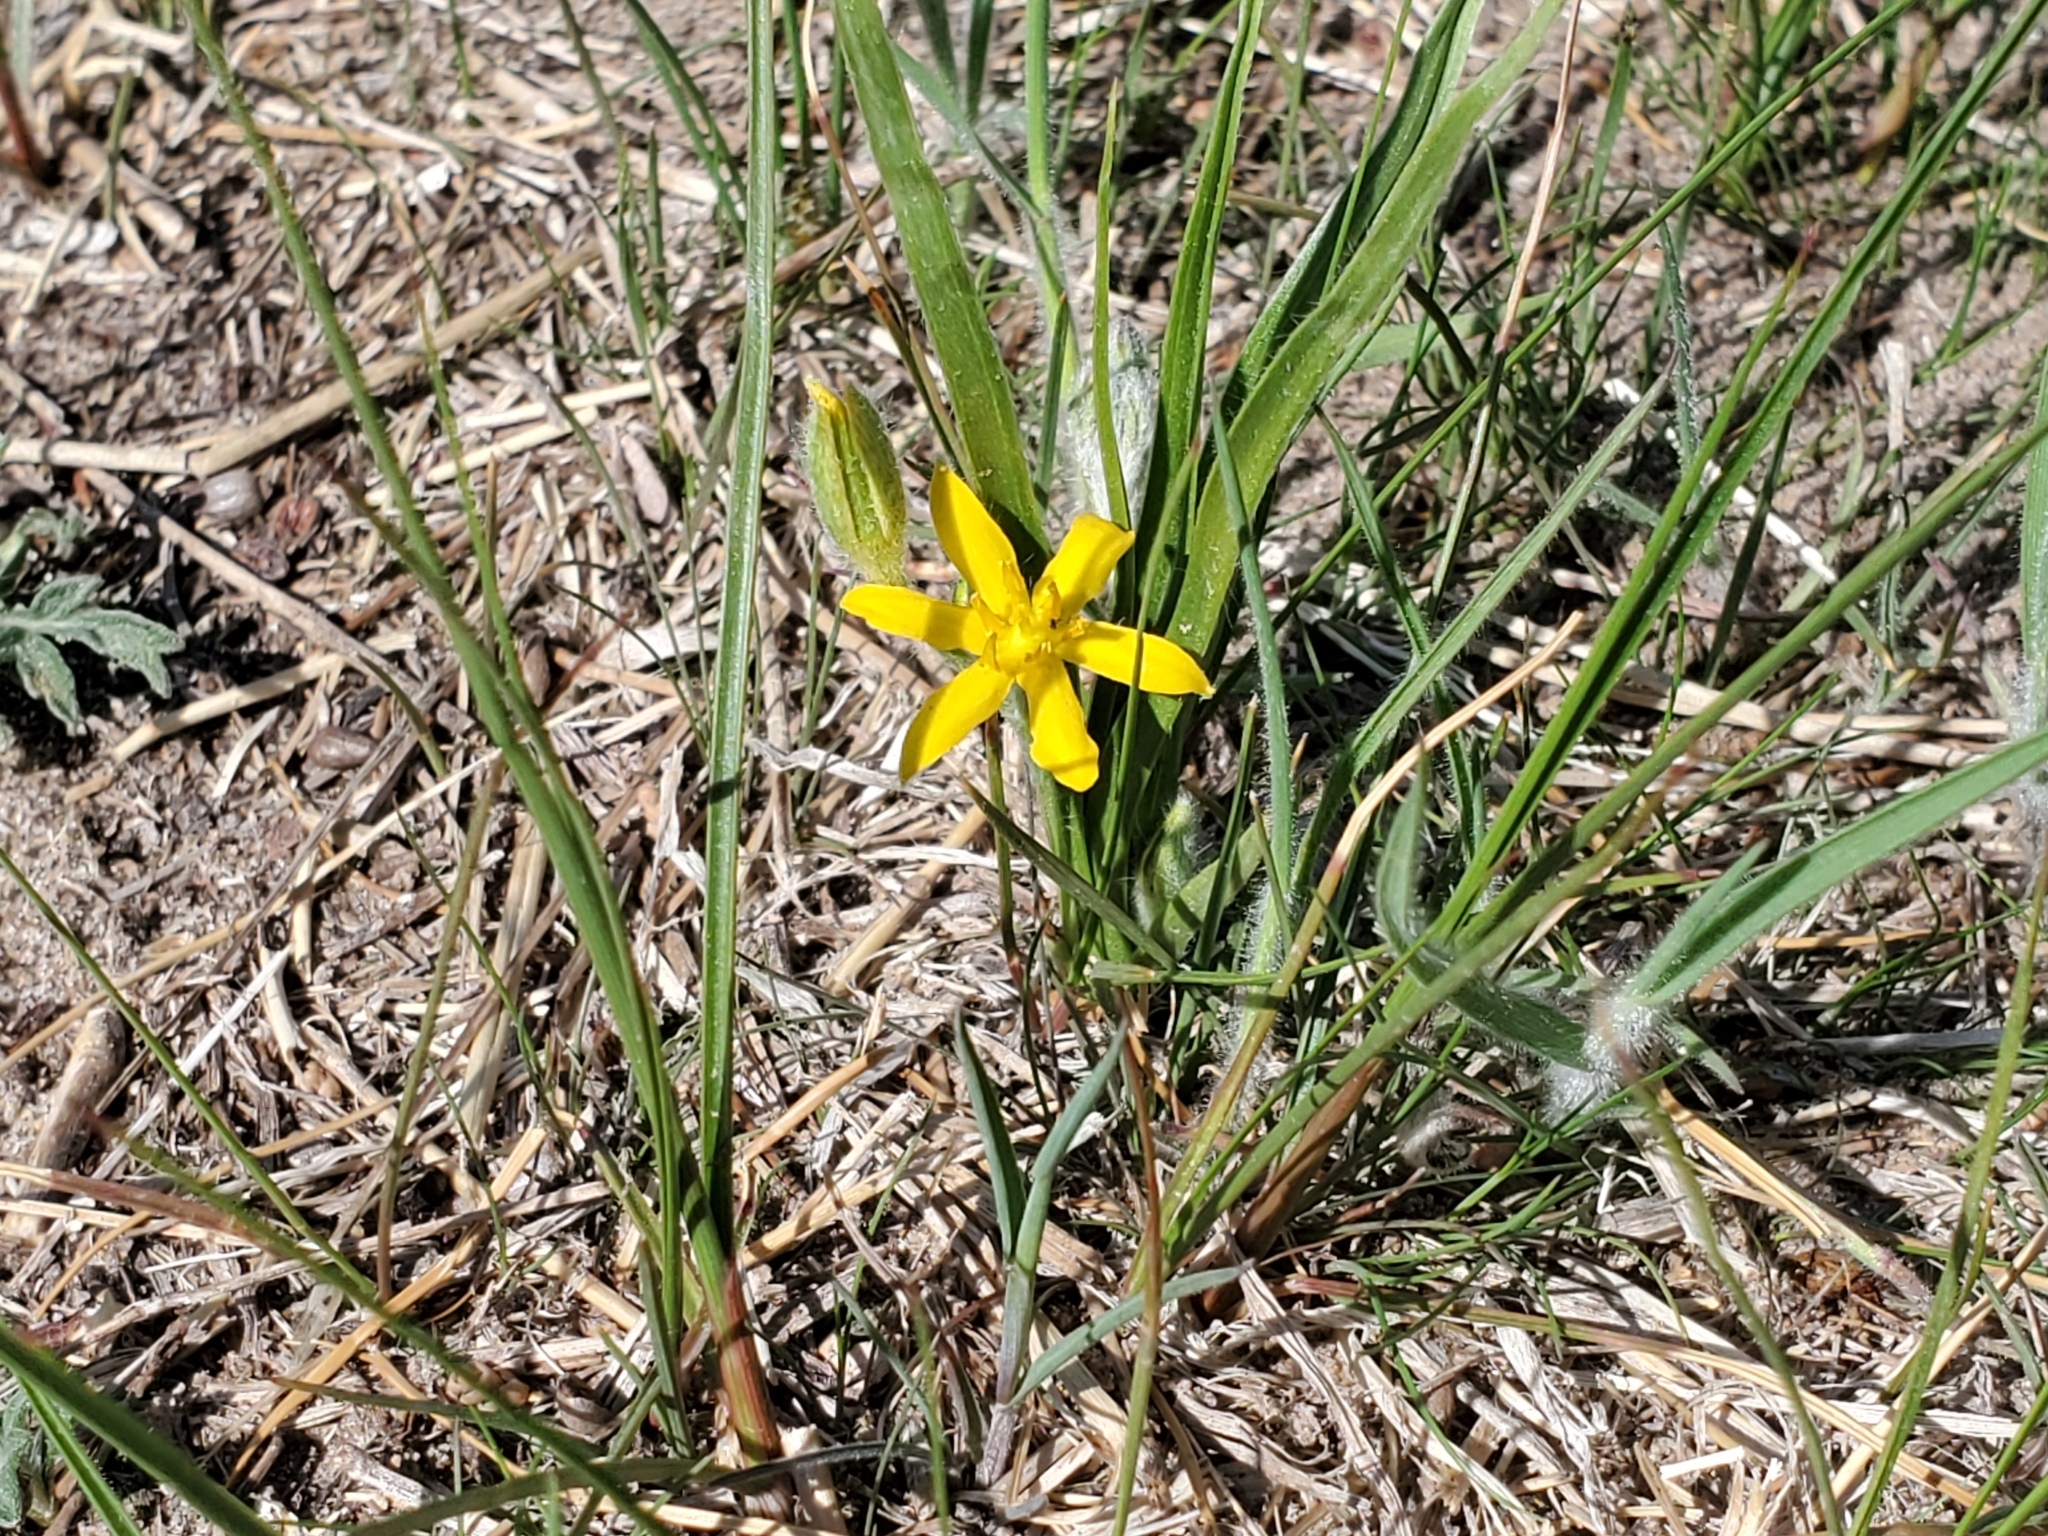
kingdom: Plantae
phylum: Tracheophyta
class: Liliopsida
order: Asparagales
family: Hypoxidaceae
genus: Hypoxis
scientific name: Hypoxis hirsuta
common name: Common goldstar
